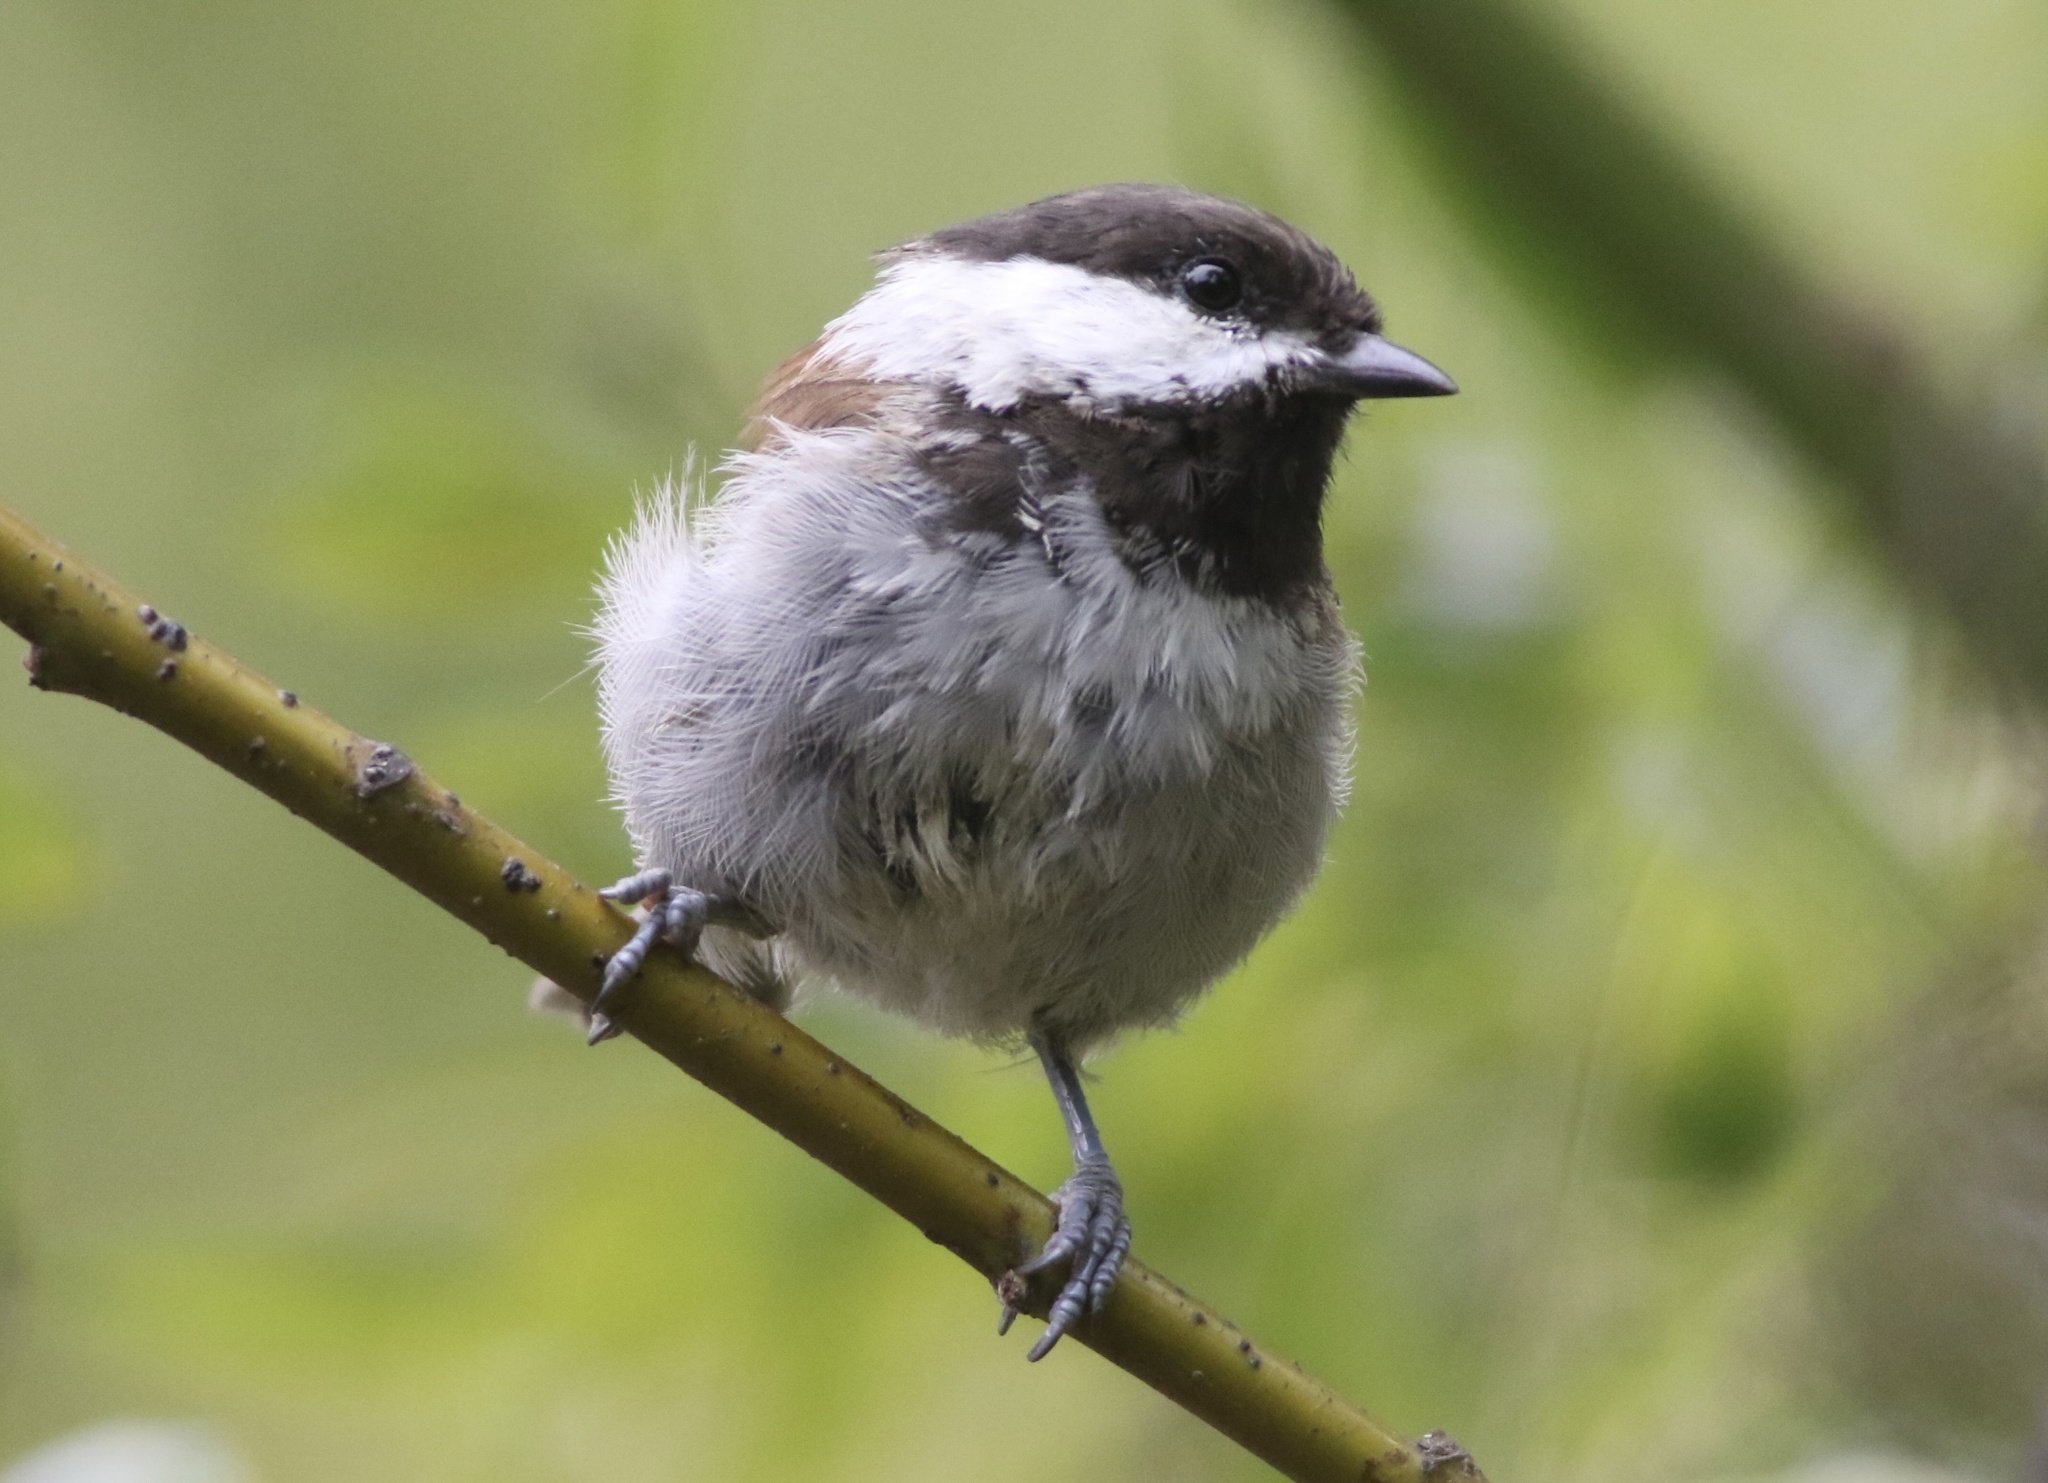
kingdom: Animalia
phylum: Chordata
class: Aves
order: Passeriformes
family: Paridae
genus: Poecile
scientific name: Poecile rufescens
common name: Chestnut-backed chickadee
